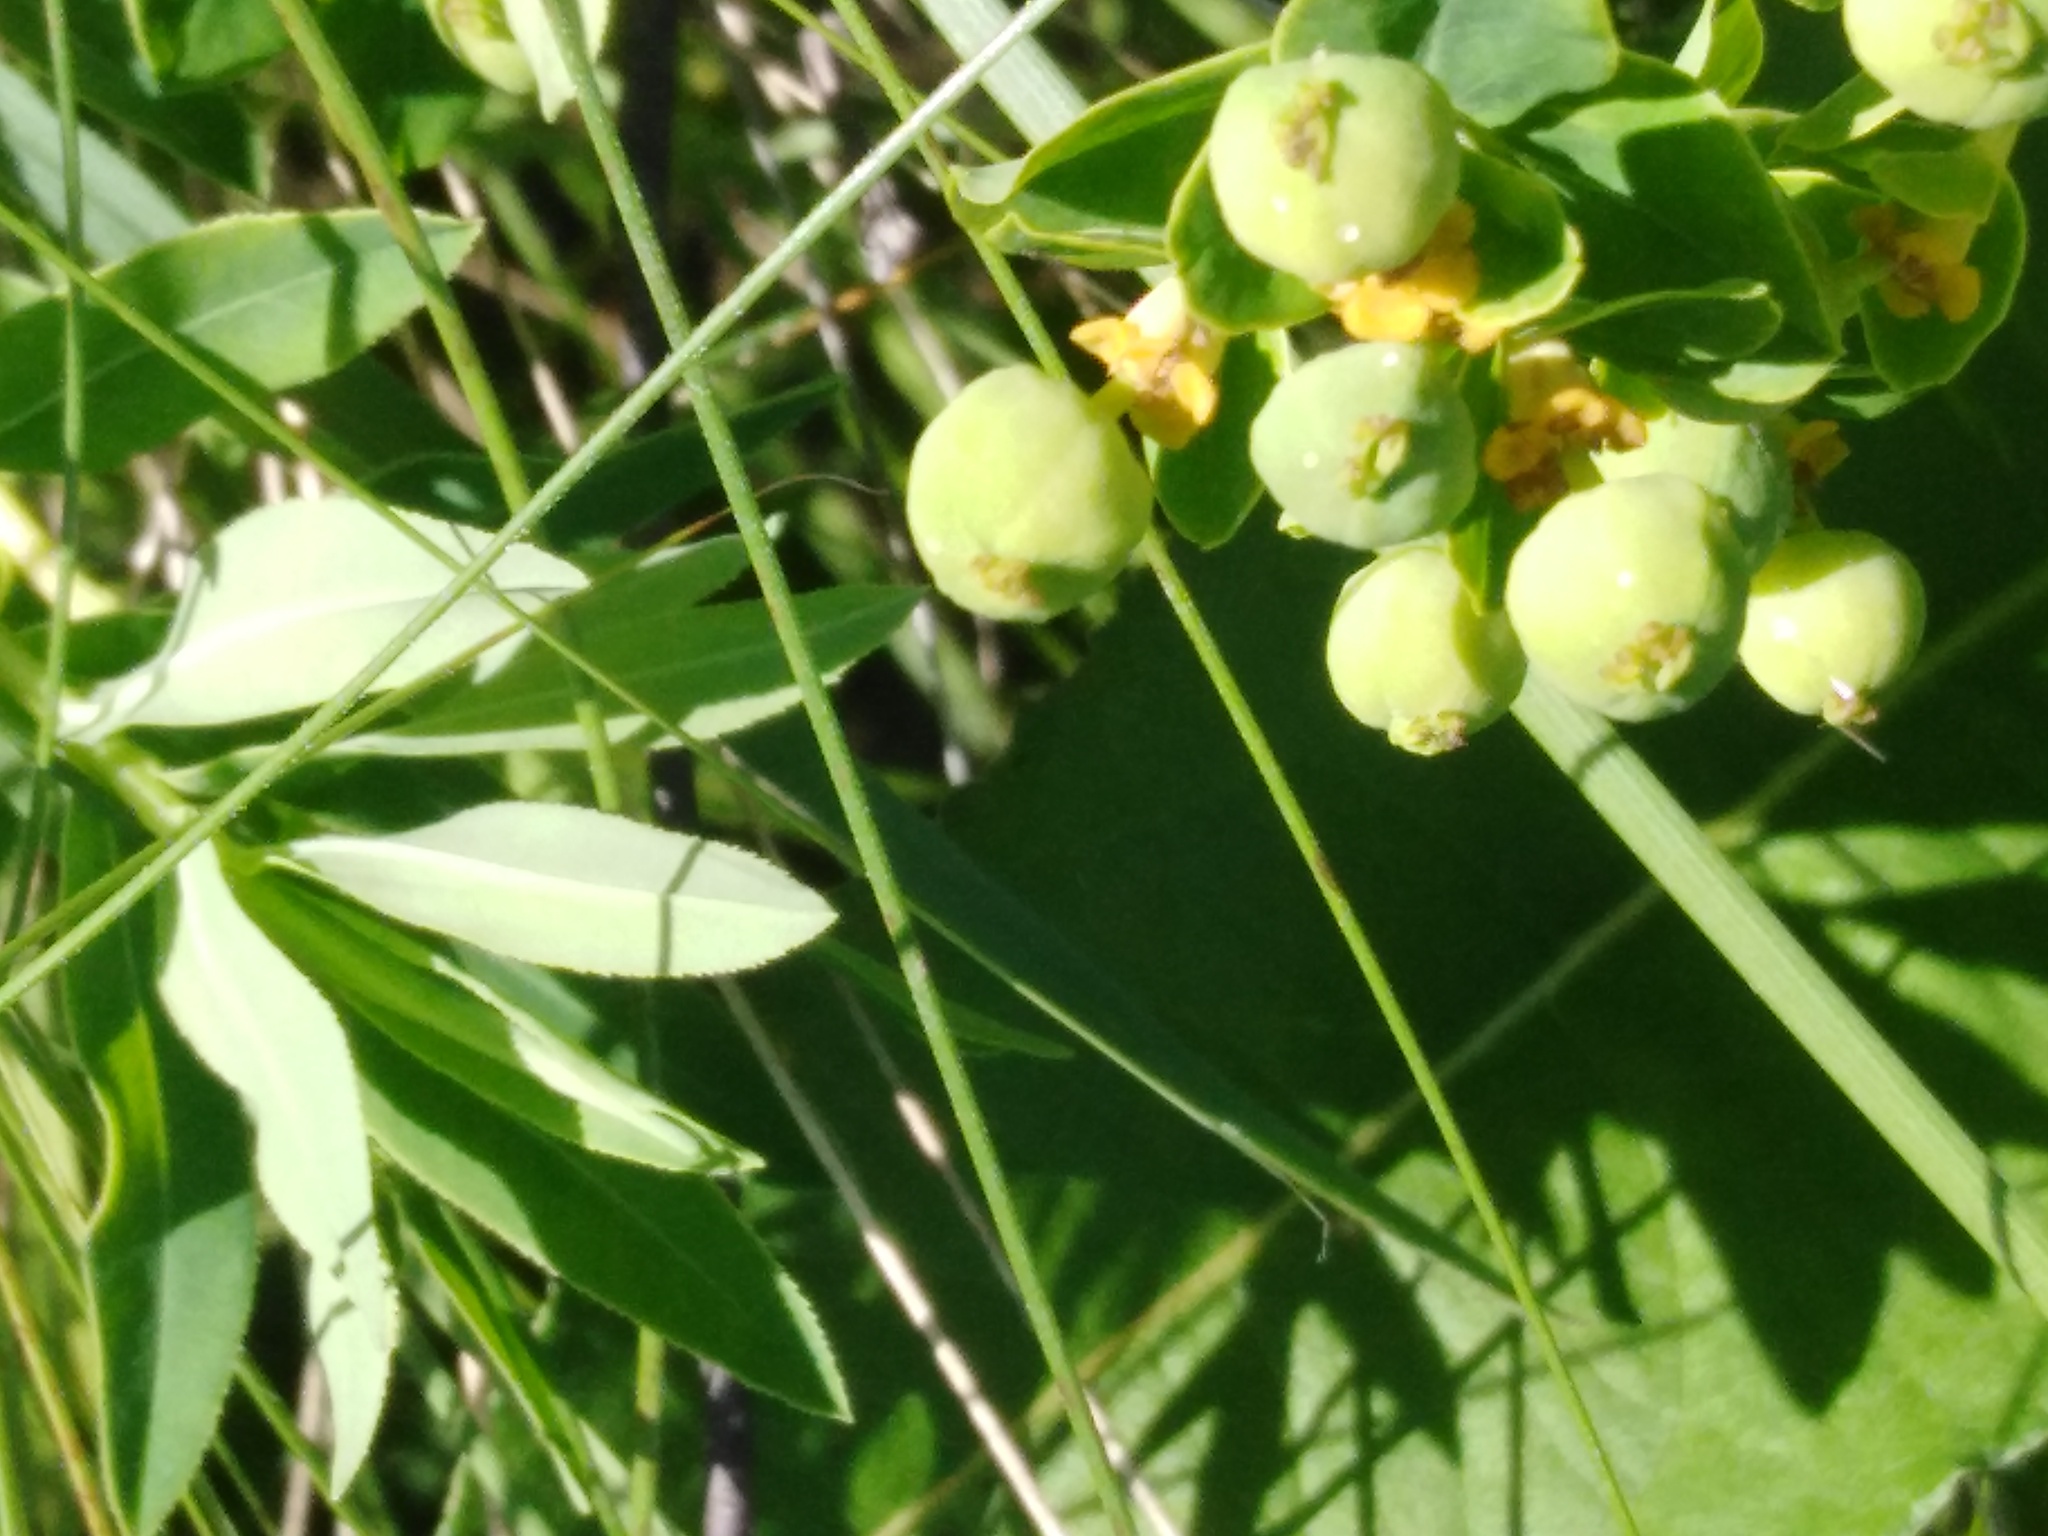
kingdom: Plantae
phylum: Tracheophyta
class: Magnoliopsida
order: Malpighiales
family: Euphorbiaceae
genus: Euphorbia
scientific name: Euphorbia semivillosa
